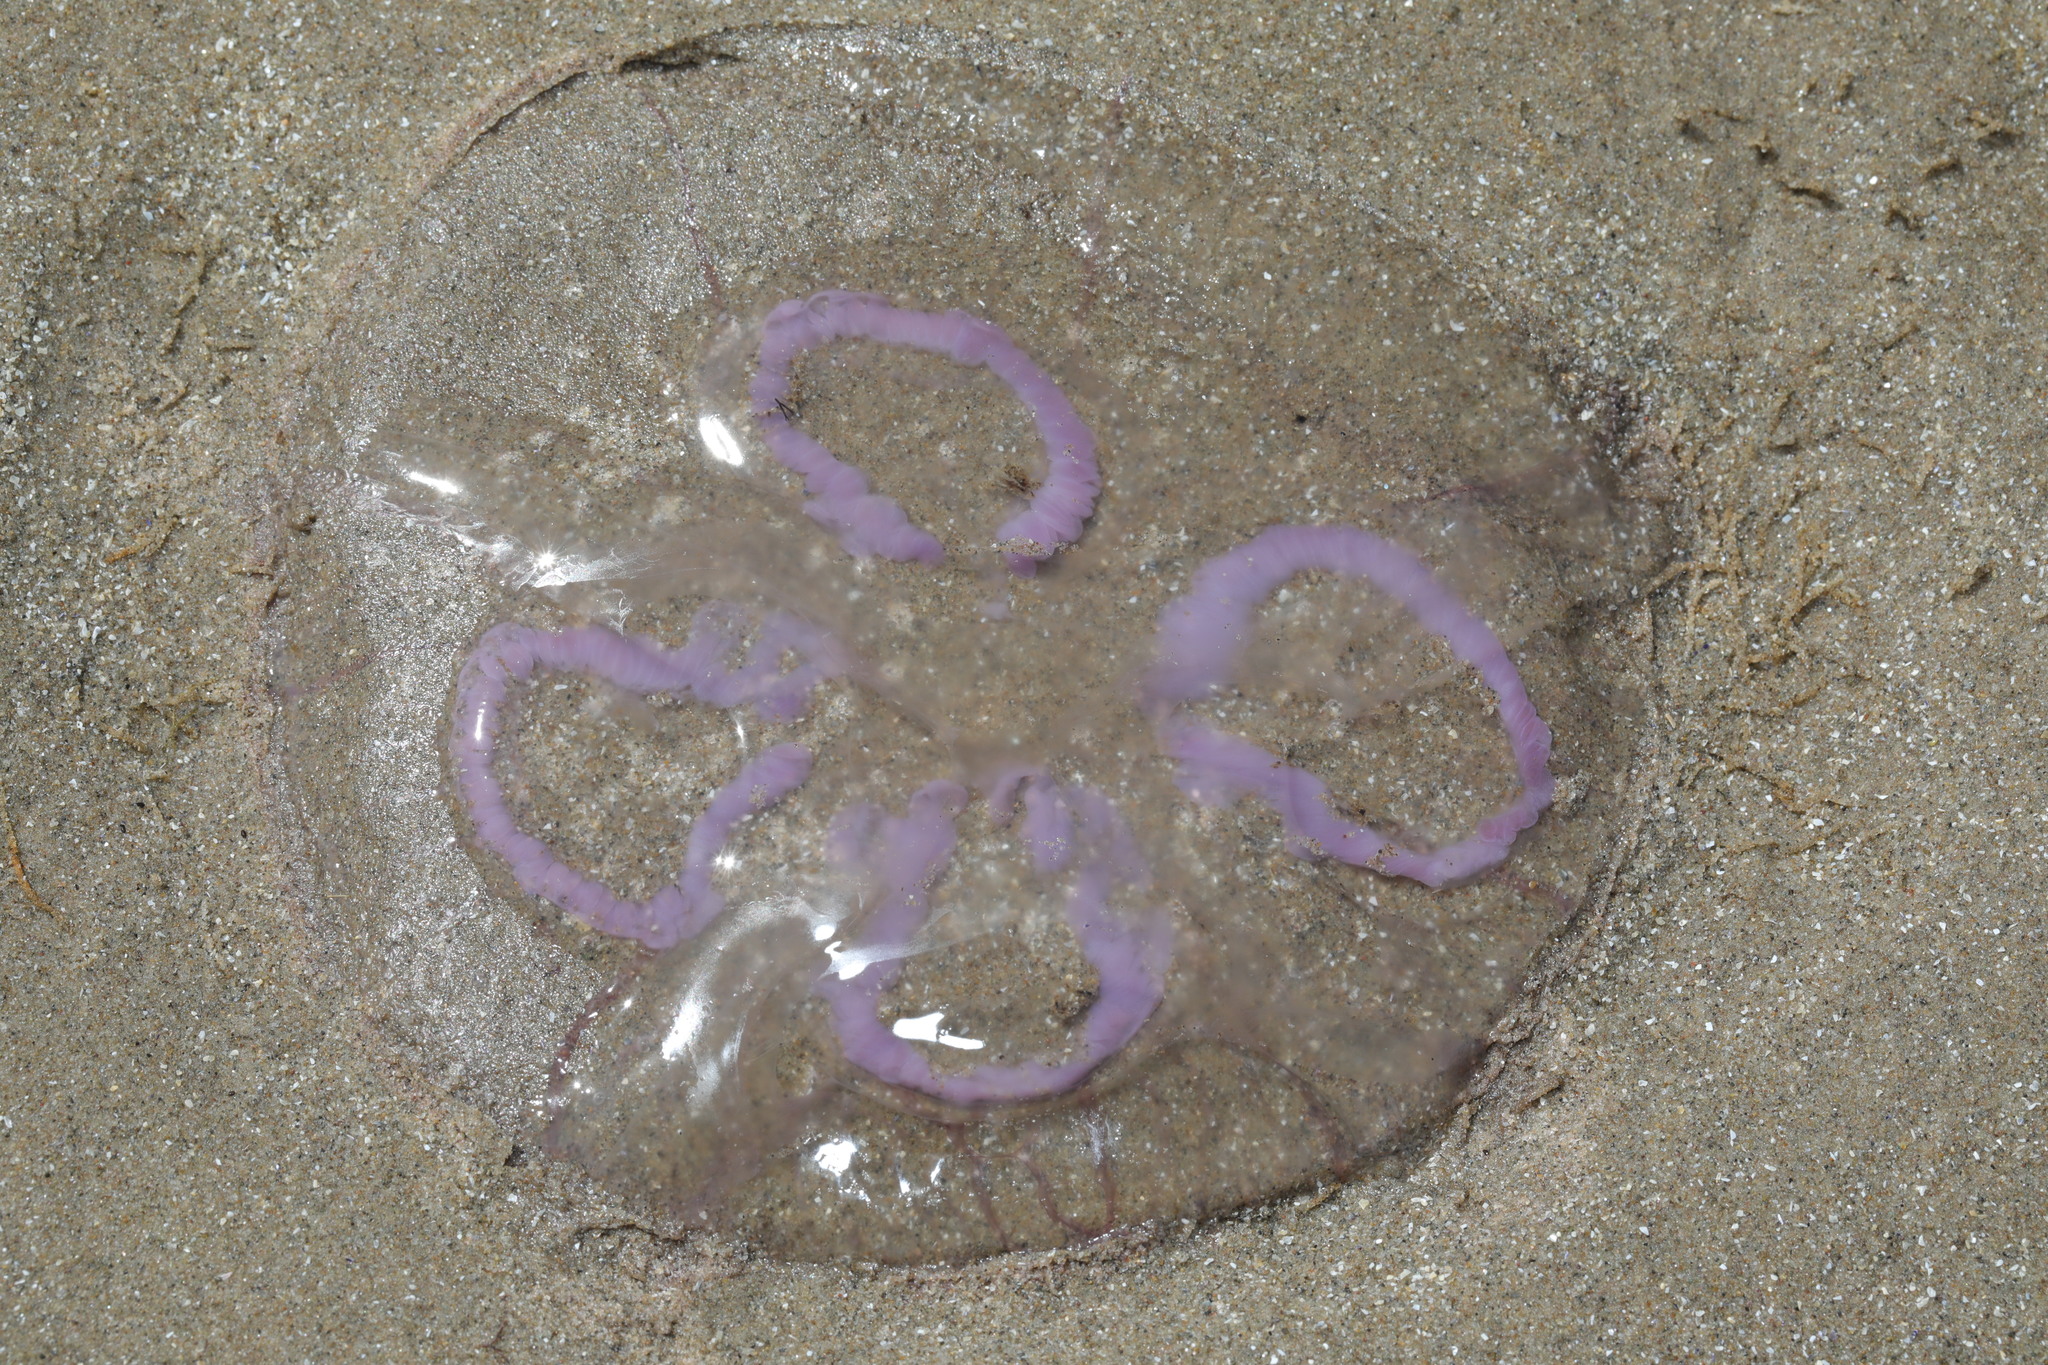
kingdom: Animalia
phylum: Cnidaria
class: Scyphozoa
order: Semaeostomeae
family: Ulmaridae
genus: Aurelia
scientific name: Aurelia aurita
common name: Moon jellyfish
